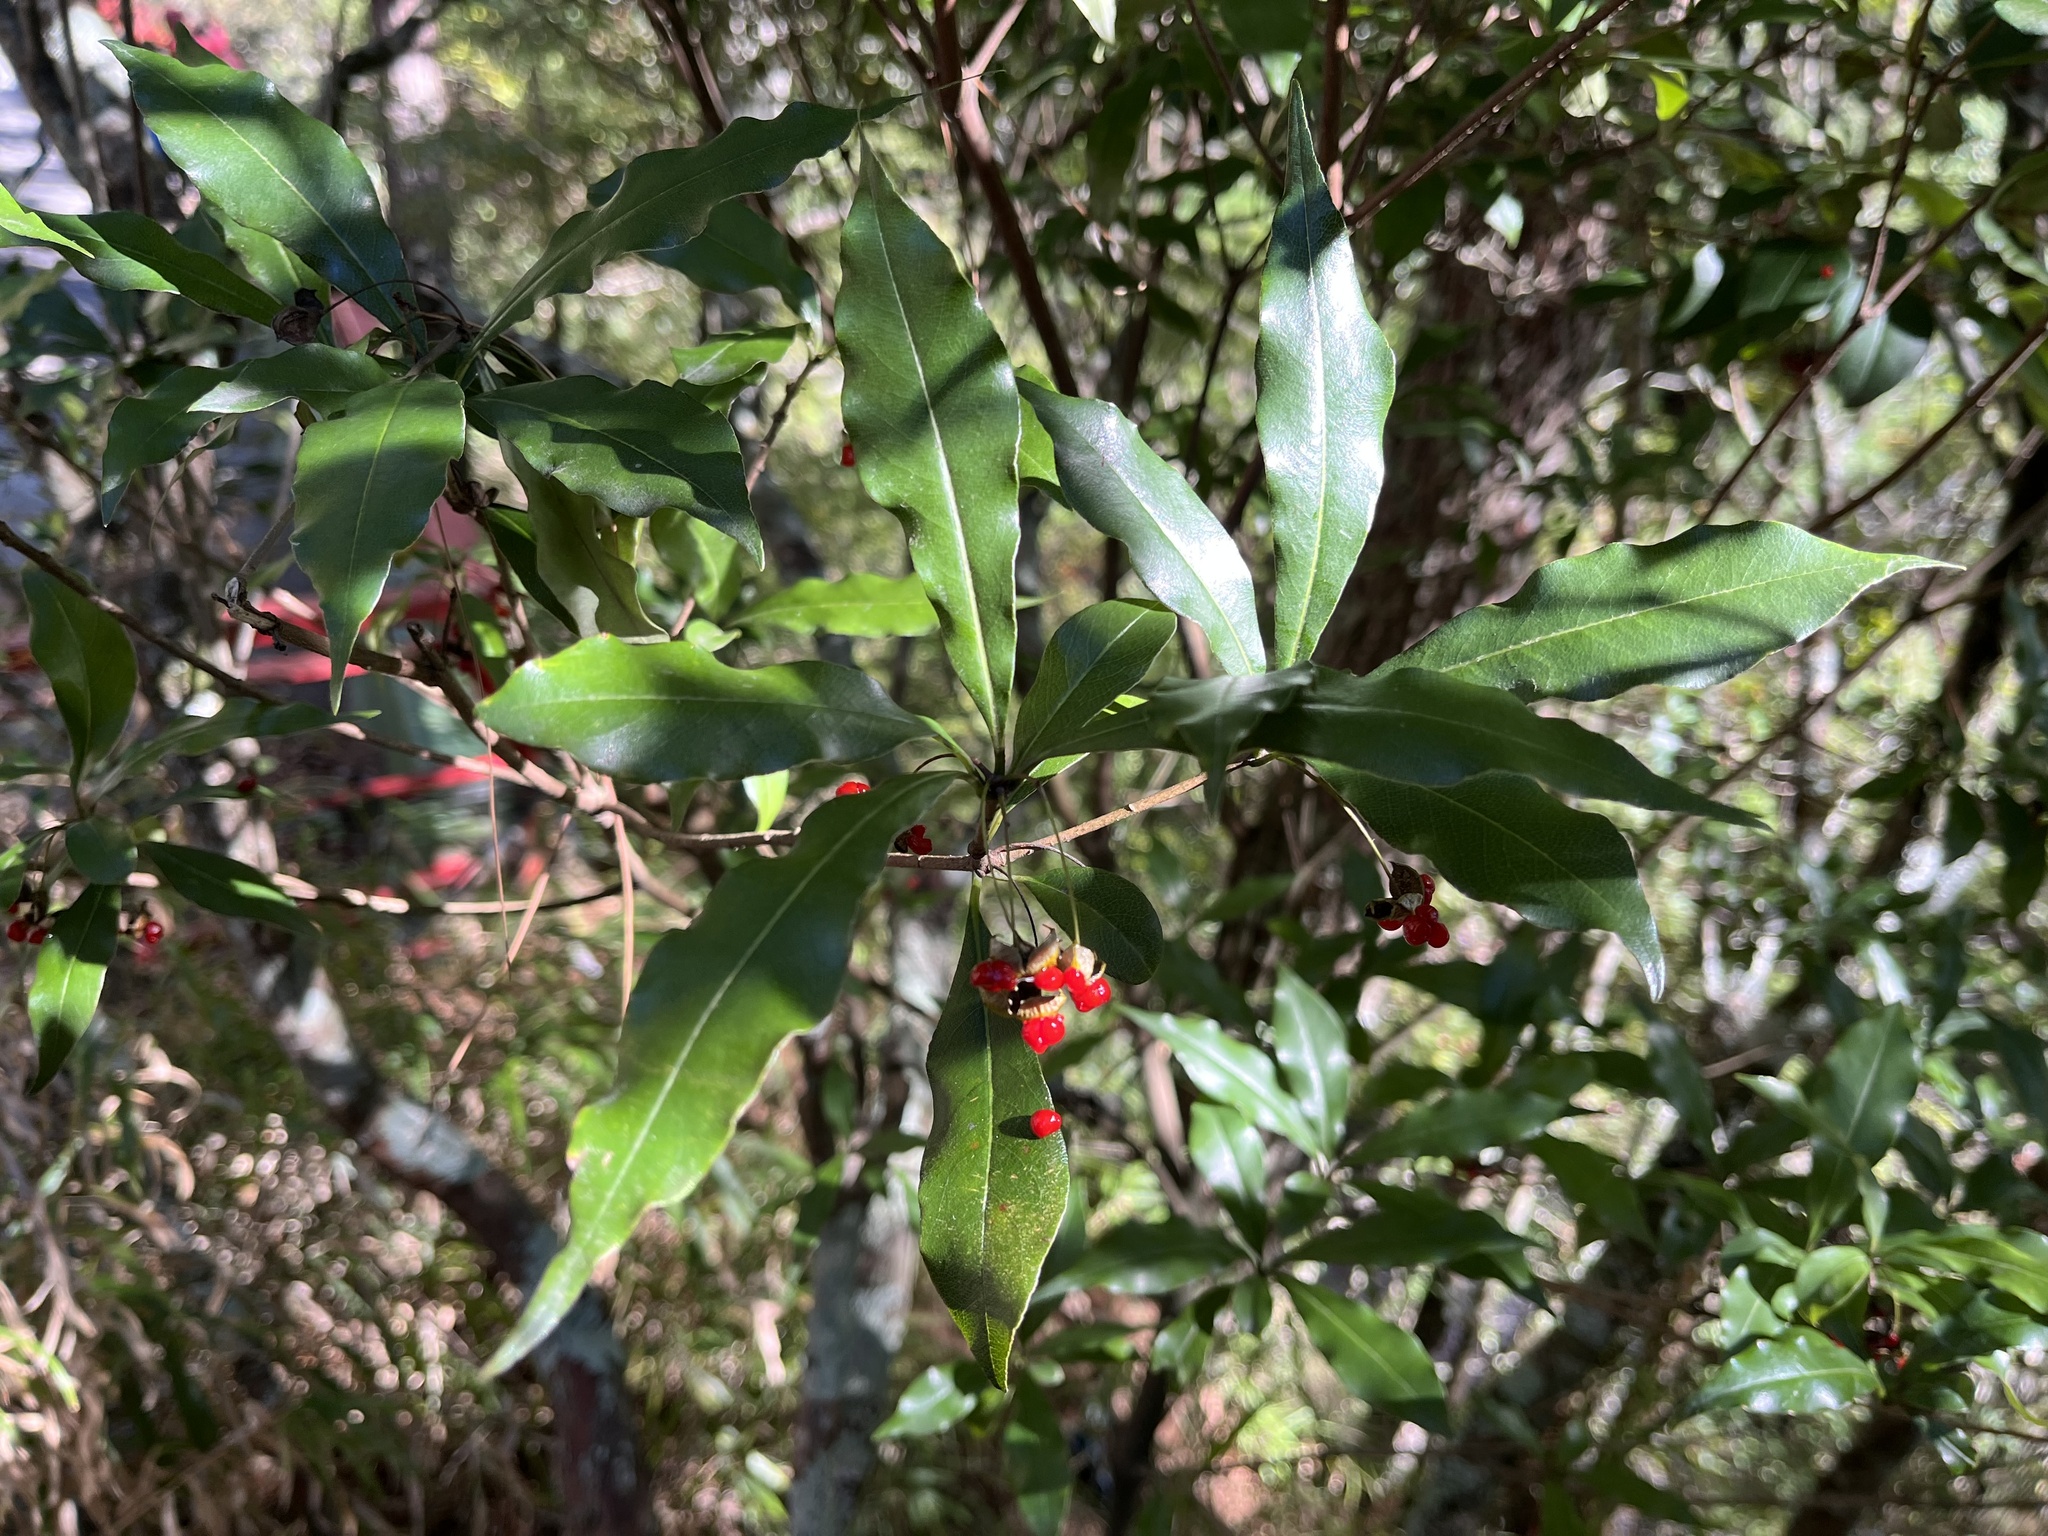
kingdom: Plantae
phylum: Tracheophyta
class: Magnoliopsida
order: Apiales
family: Pittosporaceae
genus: Pittosporum
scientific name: Pittosporum illicioides
